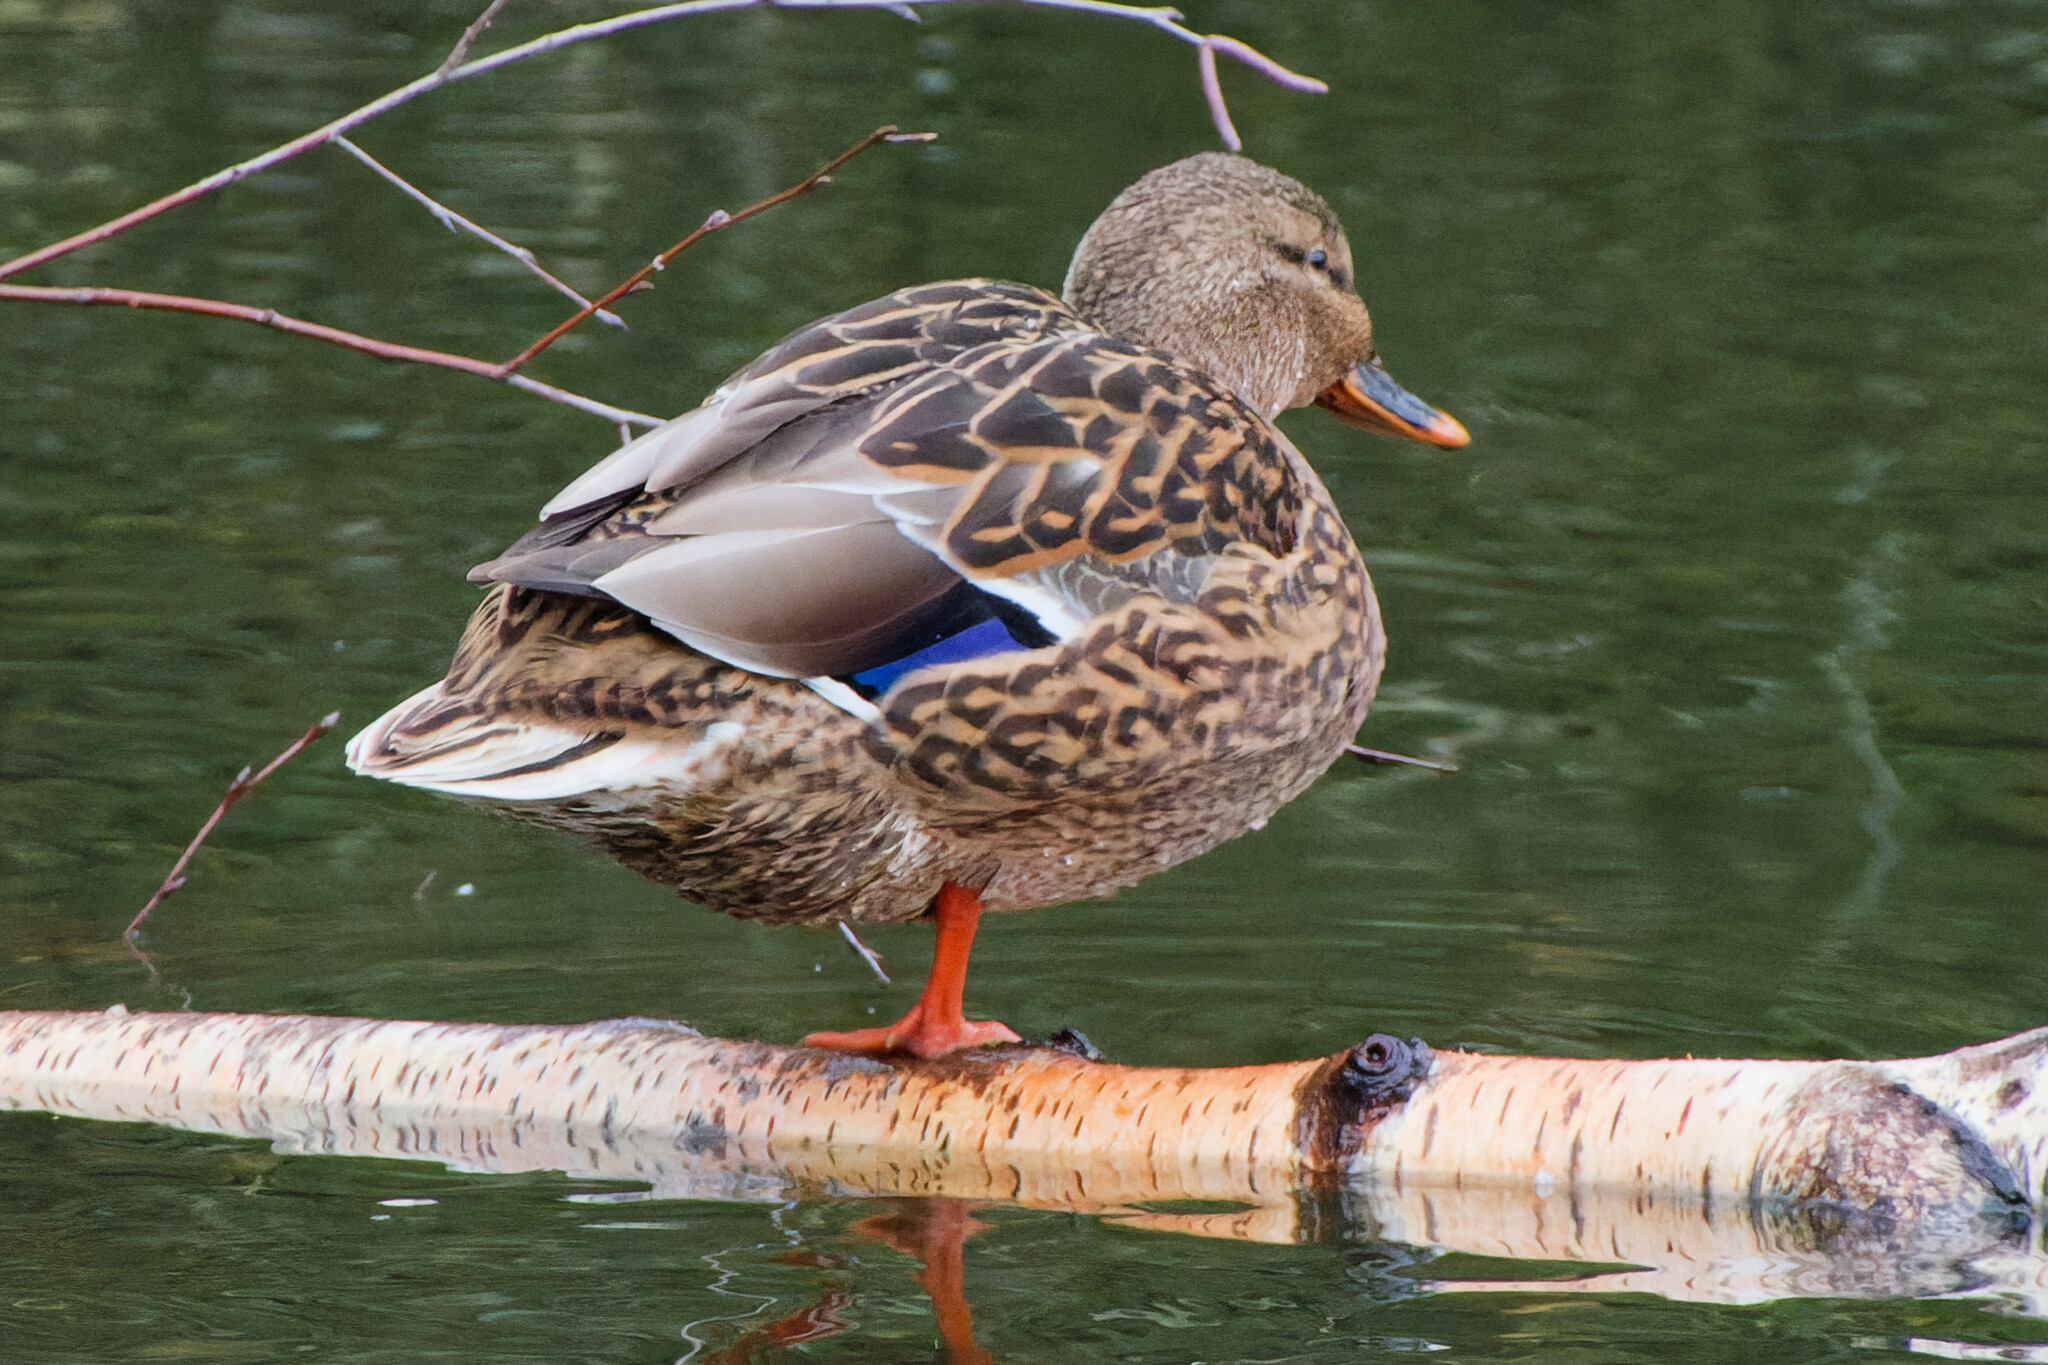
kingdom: Animalia
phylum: Chordata
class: Aves
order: Anseriformes
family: Anatidae
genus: Anas
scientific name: Anas platyrhynchos
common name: Mallard
